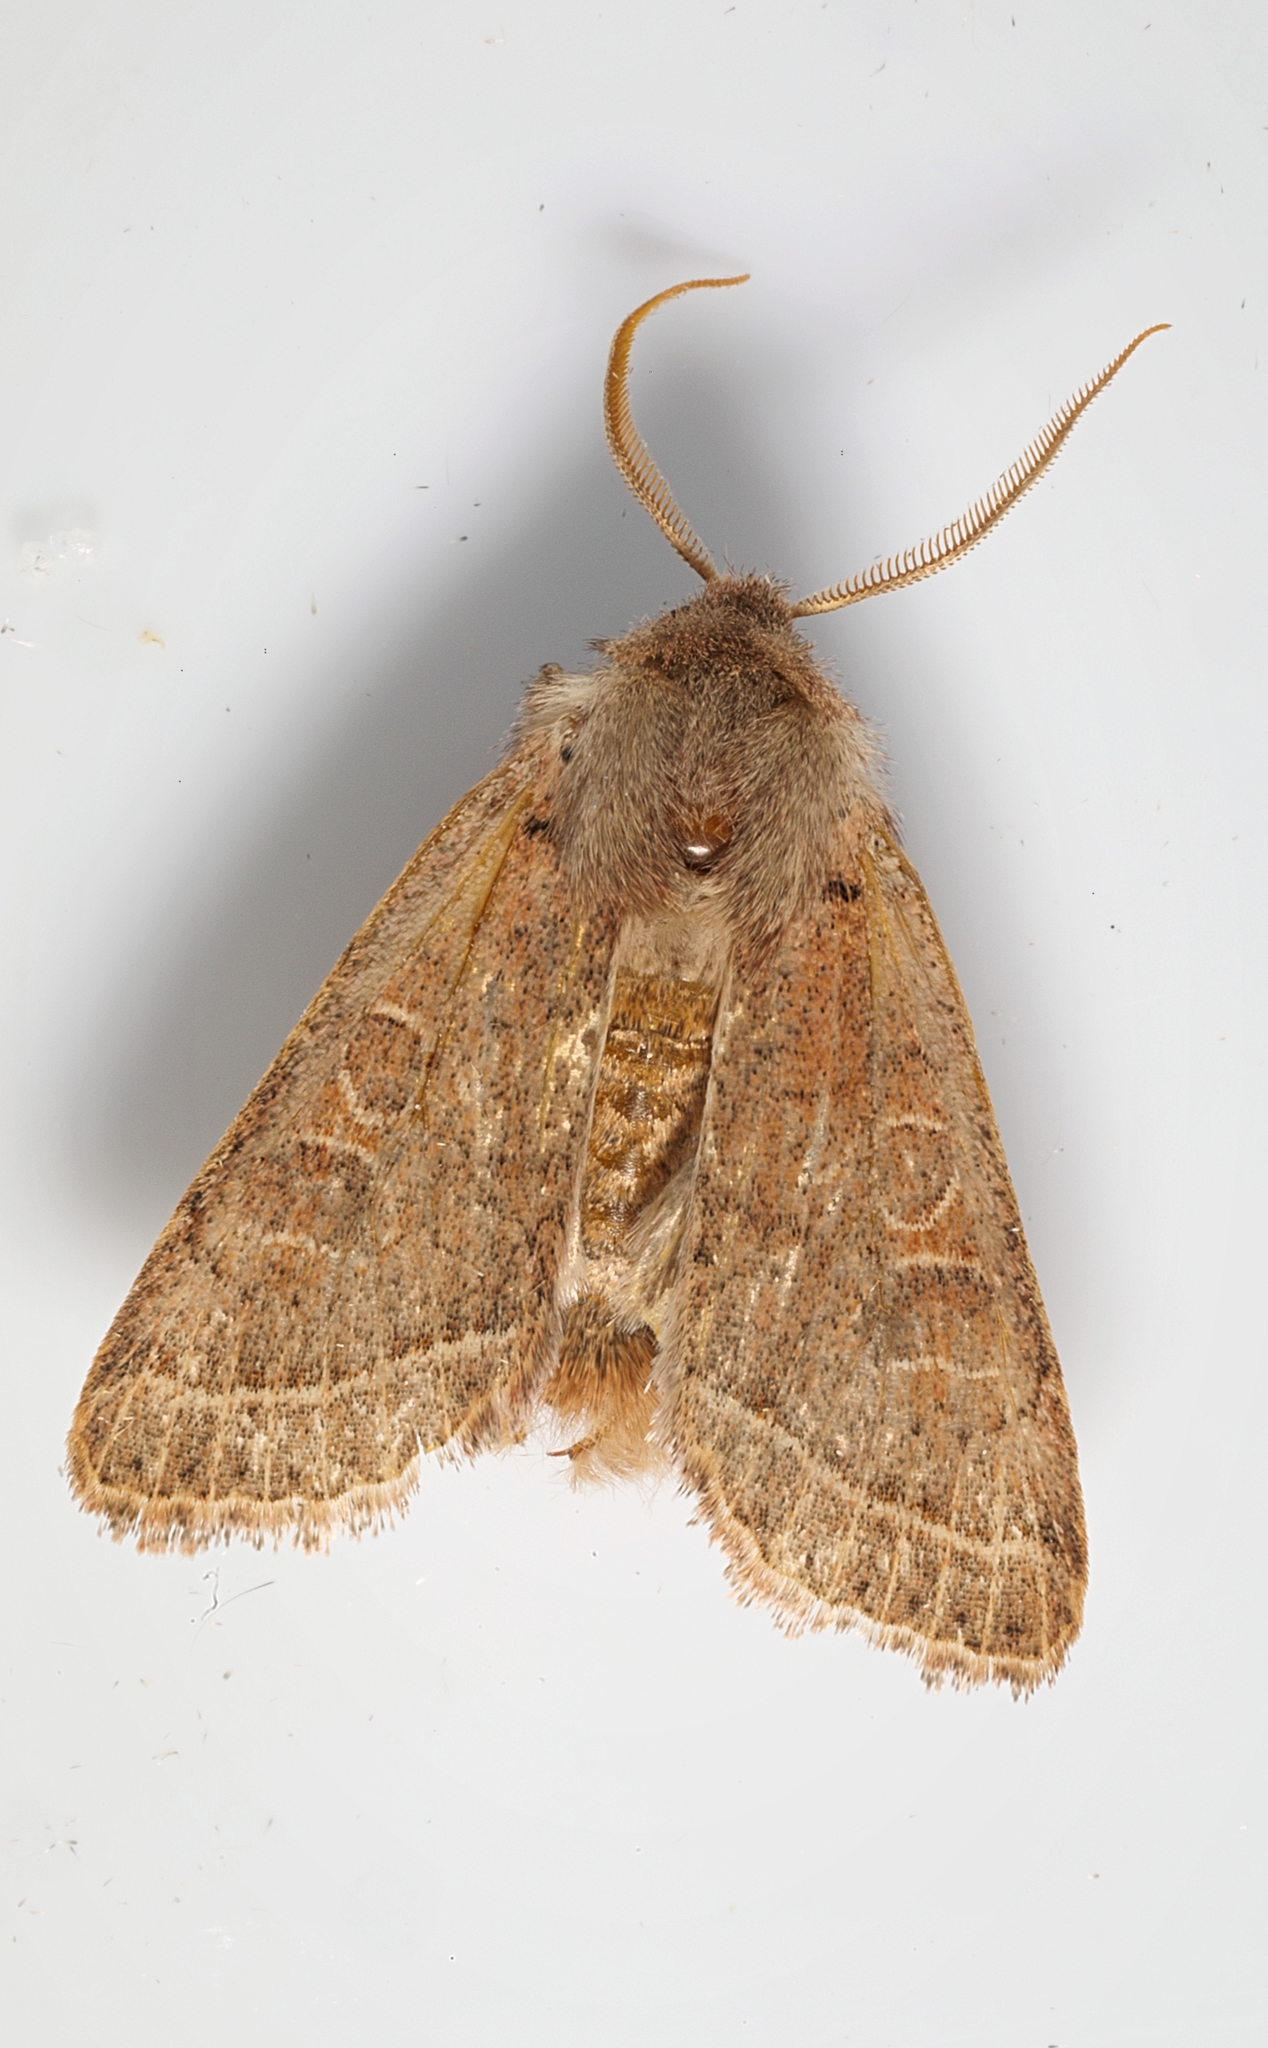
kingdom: Animalia
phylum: Arthropoda
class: Insecta
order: Lepidoptera
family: Noctuidae
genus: Orthosia
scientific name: Orthosia cerasi
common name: Common quaker
